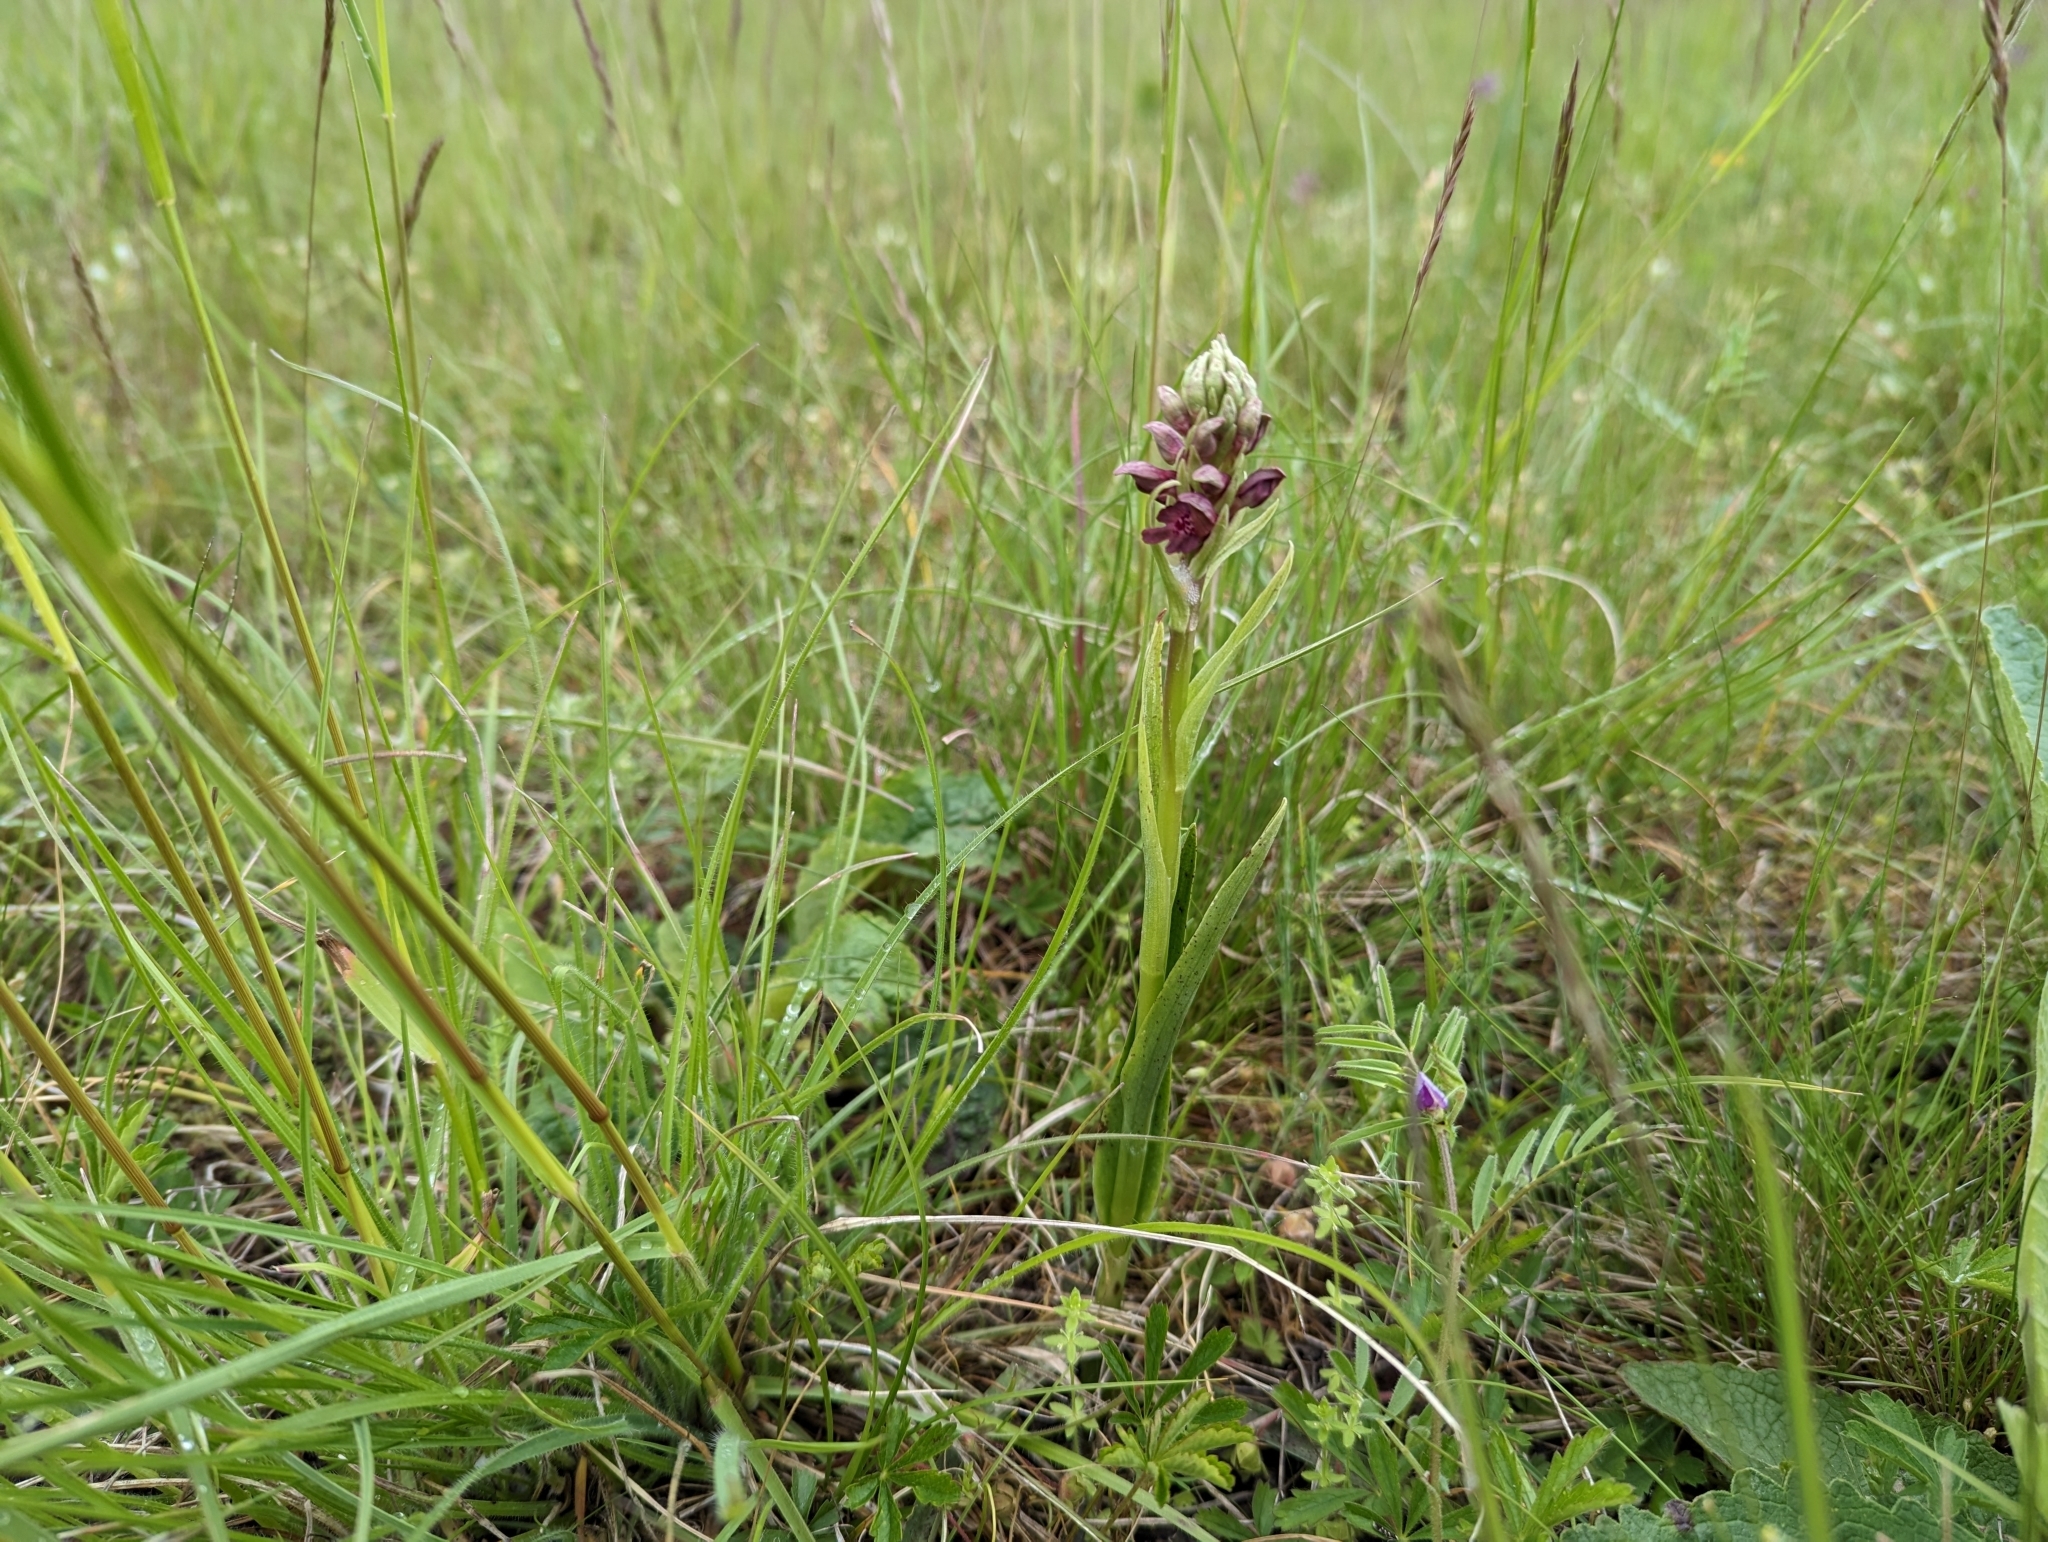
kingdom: Plantae
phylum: Tracheophyta
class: Liliopsida
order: Asparagales
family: Orchidaceae
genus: Anacamptis
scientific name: Anacamptis coriophora
